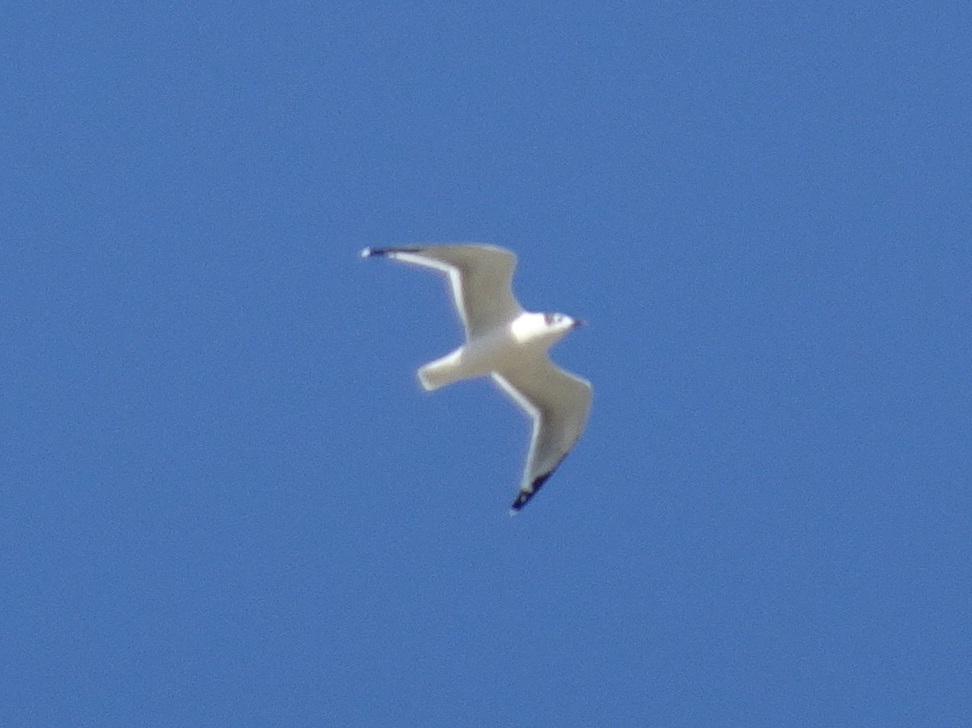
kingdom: Animalia
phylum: Chordata
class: Aves
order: Charadriiformes
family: Laridae
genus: Leucophaeus
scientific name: Leucophaeus pipixcan
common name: Franklin's gull
